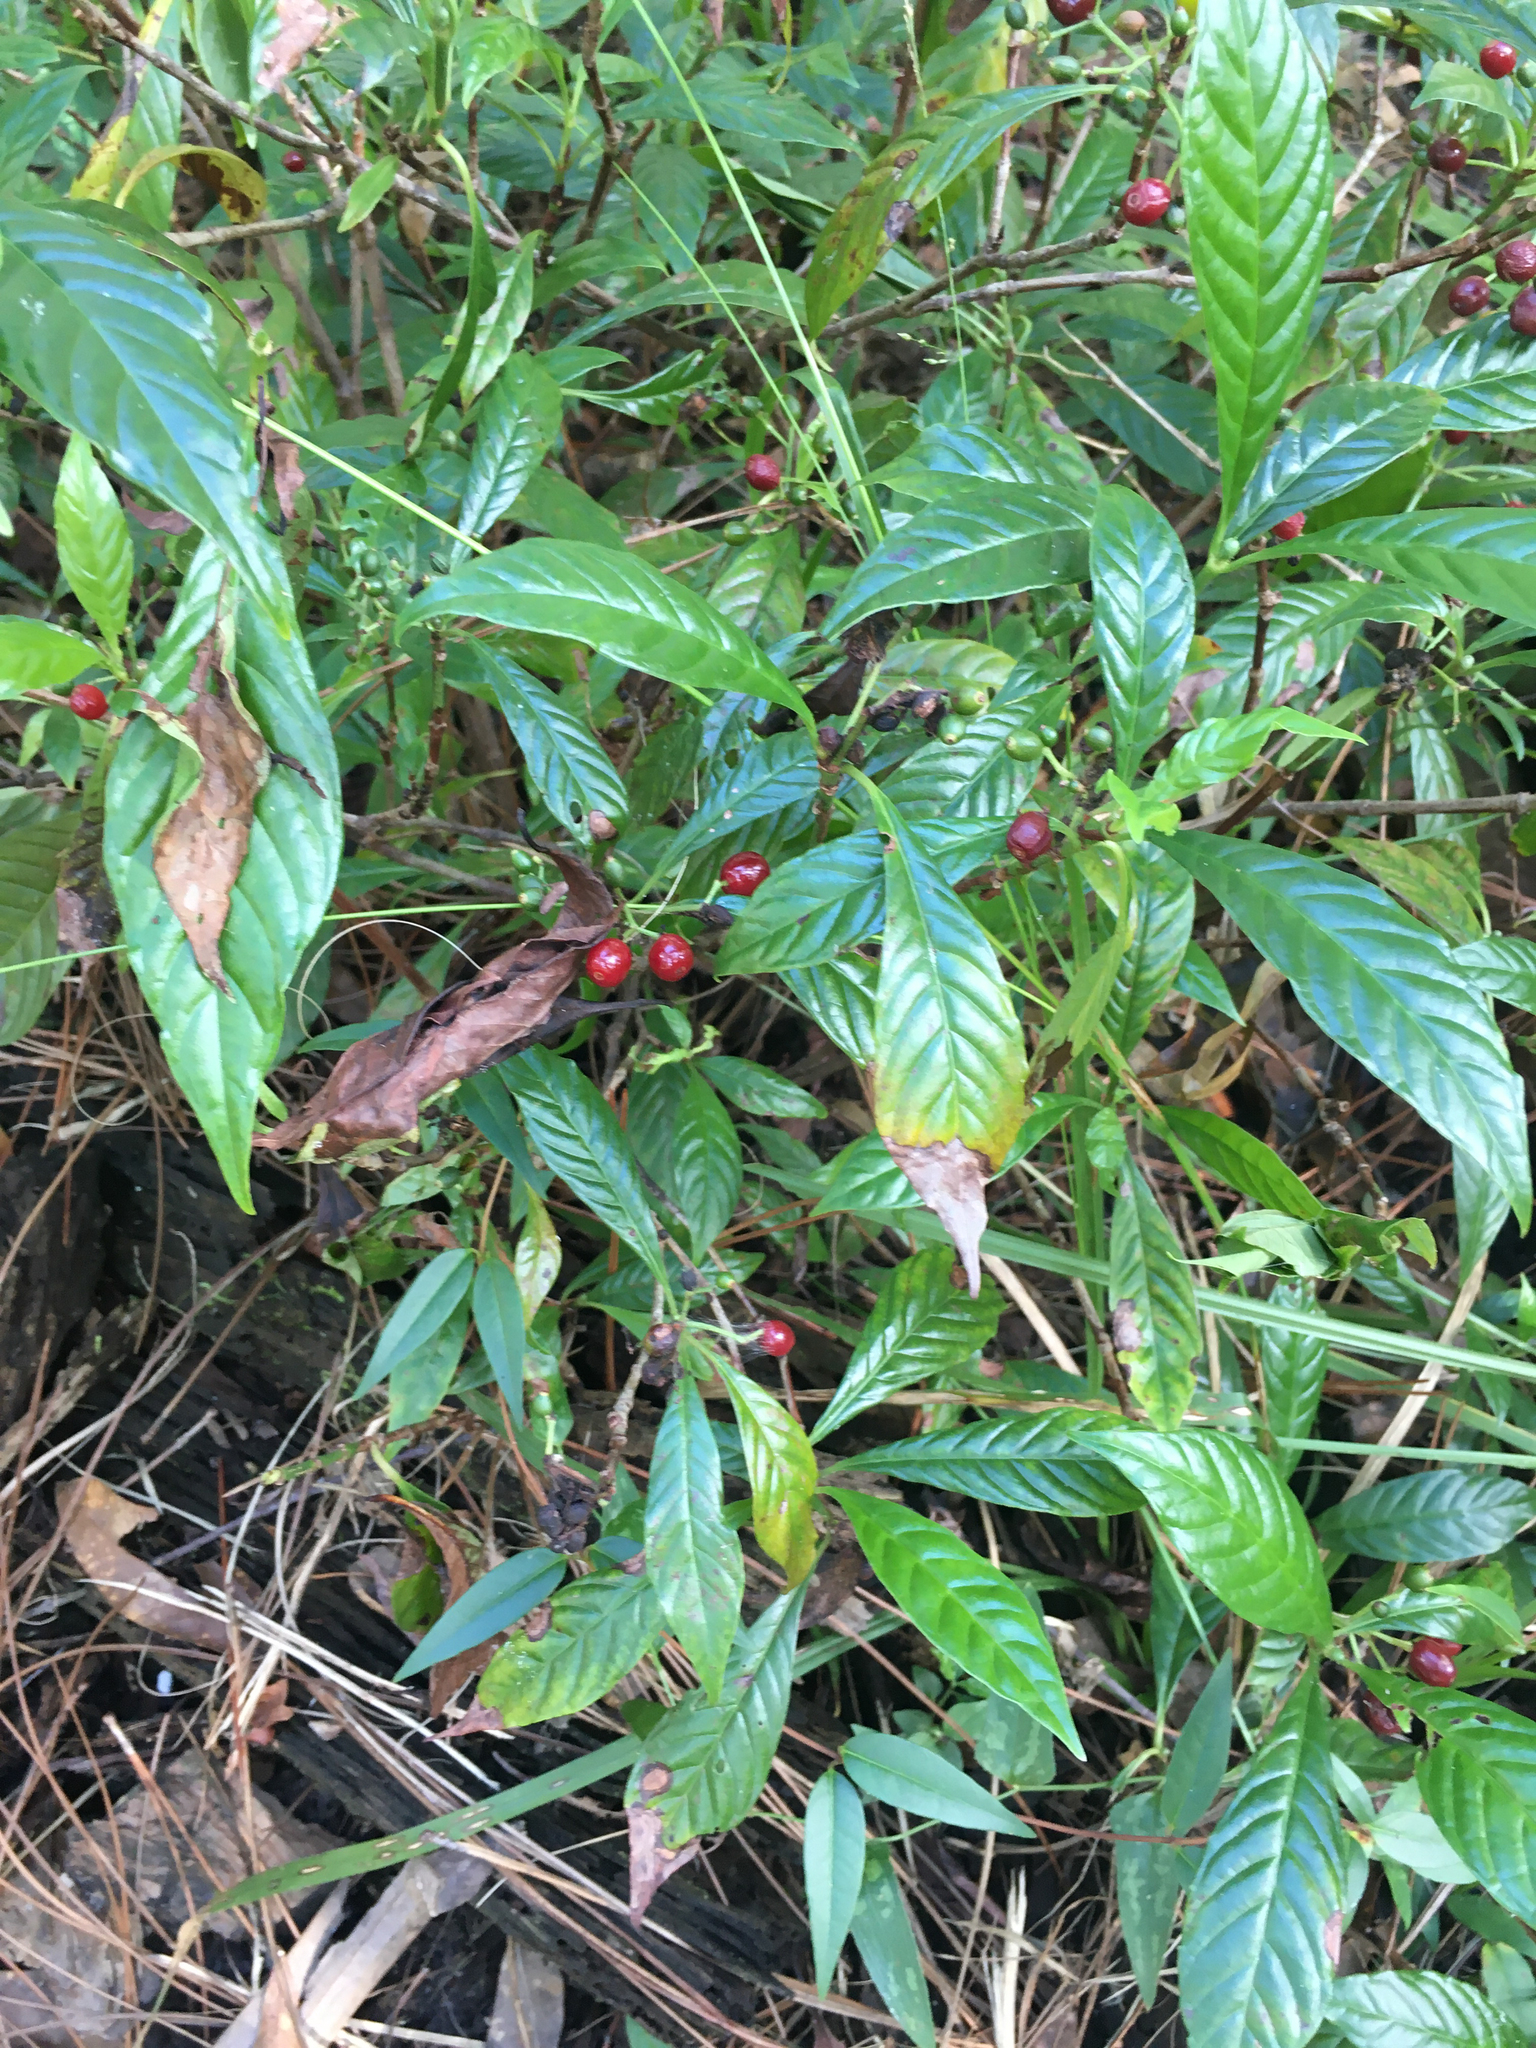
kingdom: Plantae
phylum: Tracheophyta
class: Magnoliopsida
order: Gentianales
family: Rubiaceae
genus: Psychotria
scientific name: Psychotria nervosa
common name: Bastard cankerberry
